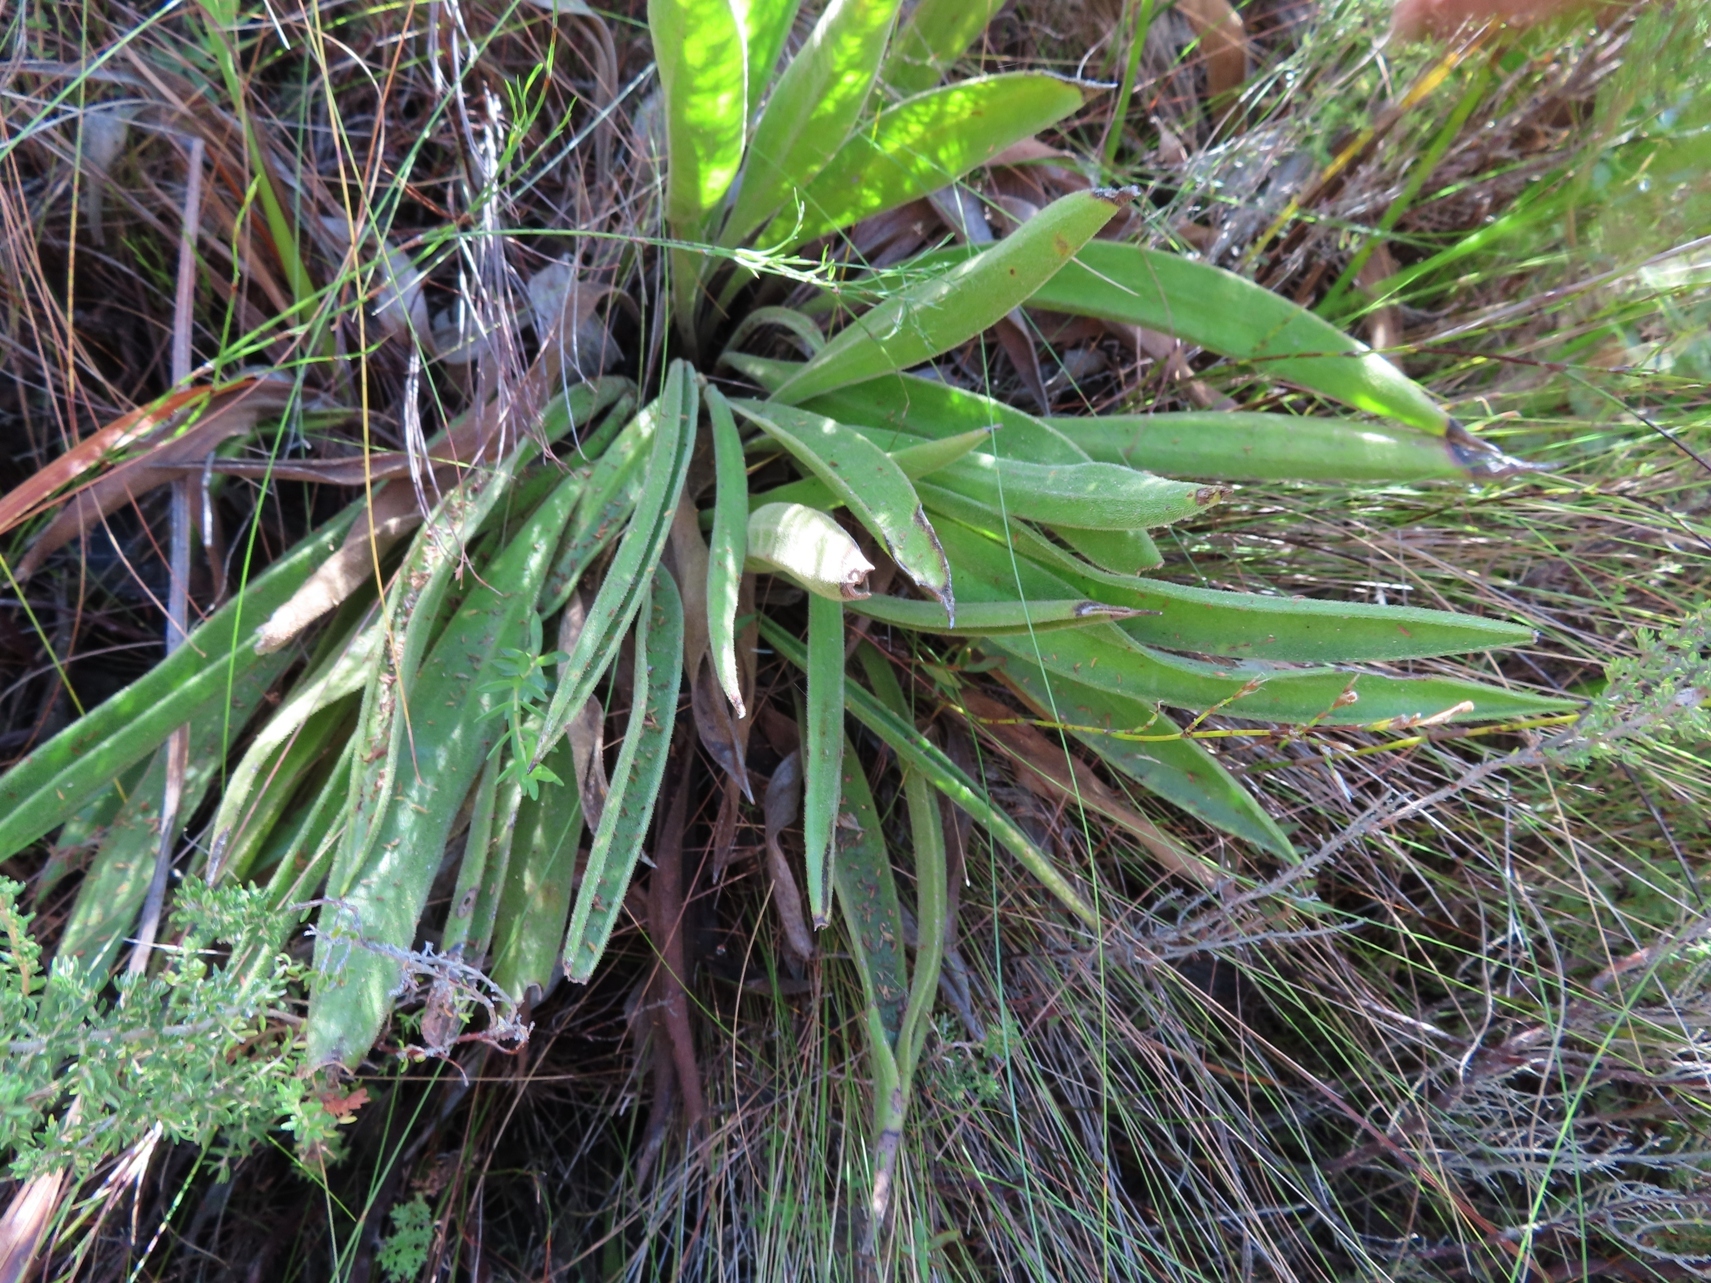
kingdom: Plantae
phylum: Tracheophyta
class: Magnoliopsida
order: Asterales
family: Asteraceae
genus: Corymbium
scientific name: Corymbium congestum
